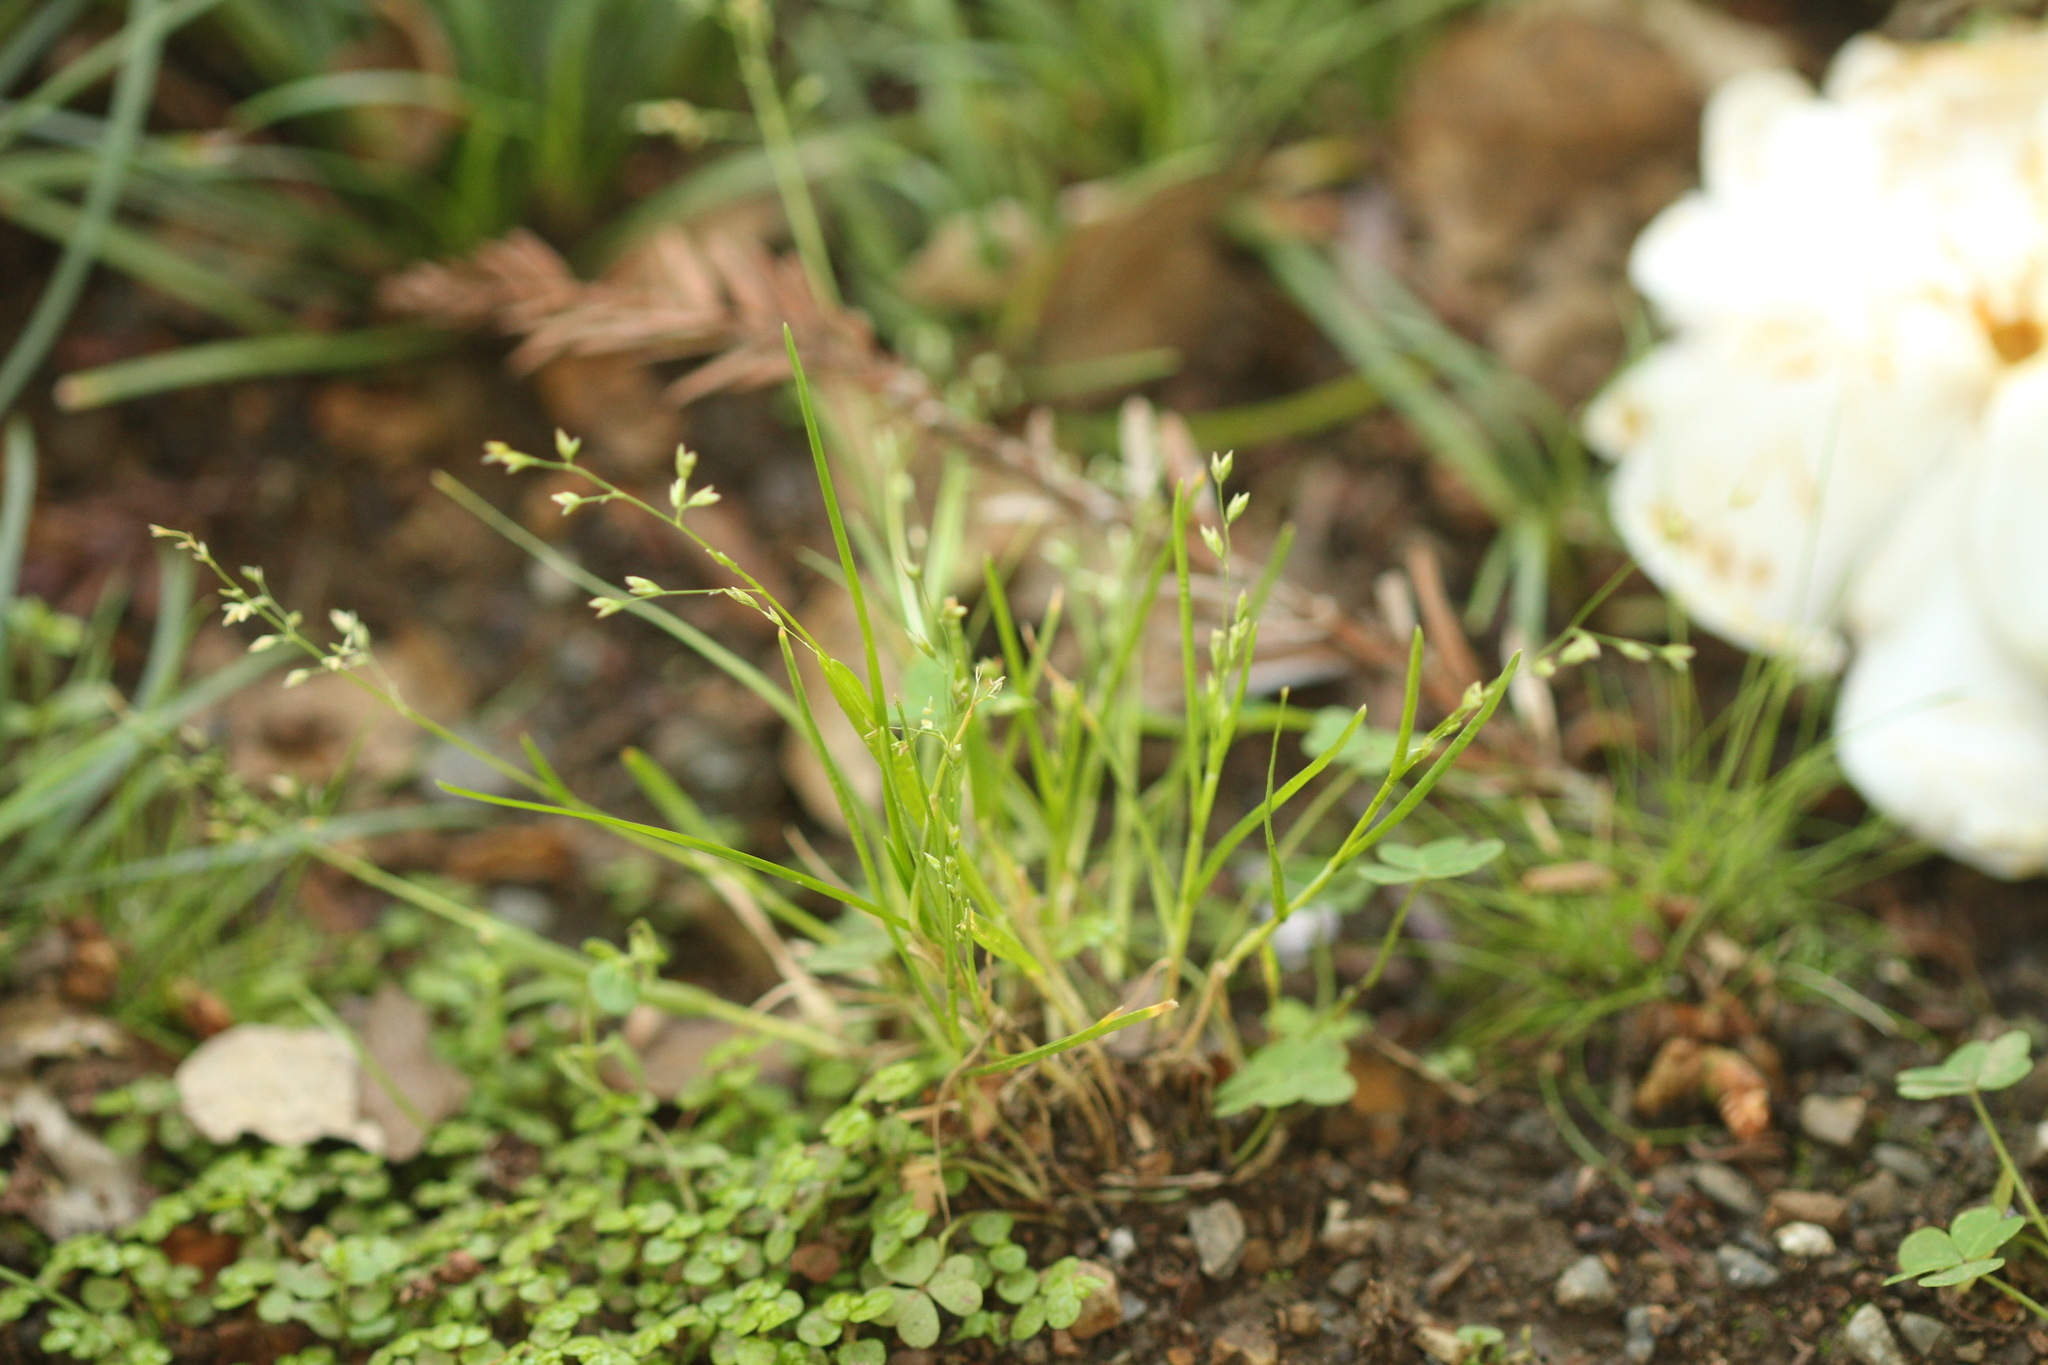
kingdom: Plantae
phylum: Tracheophyta
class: Liliopsida
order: Poales
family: Poaceae
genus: Poa
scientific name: Poa annua
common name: Annual bluegrass
